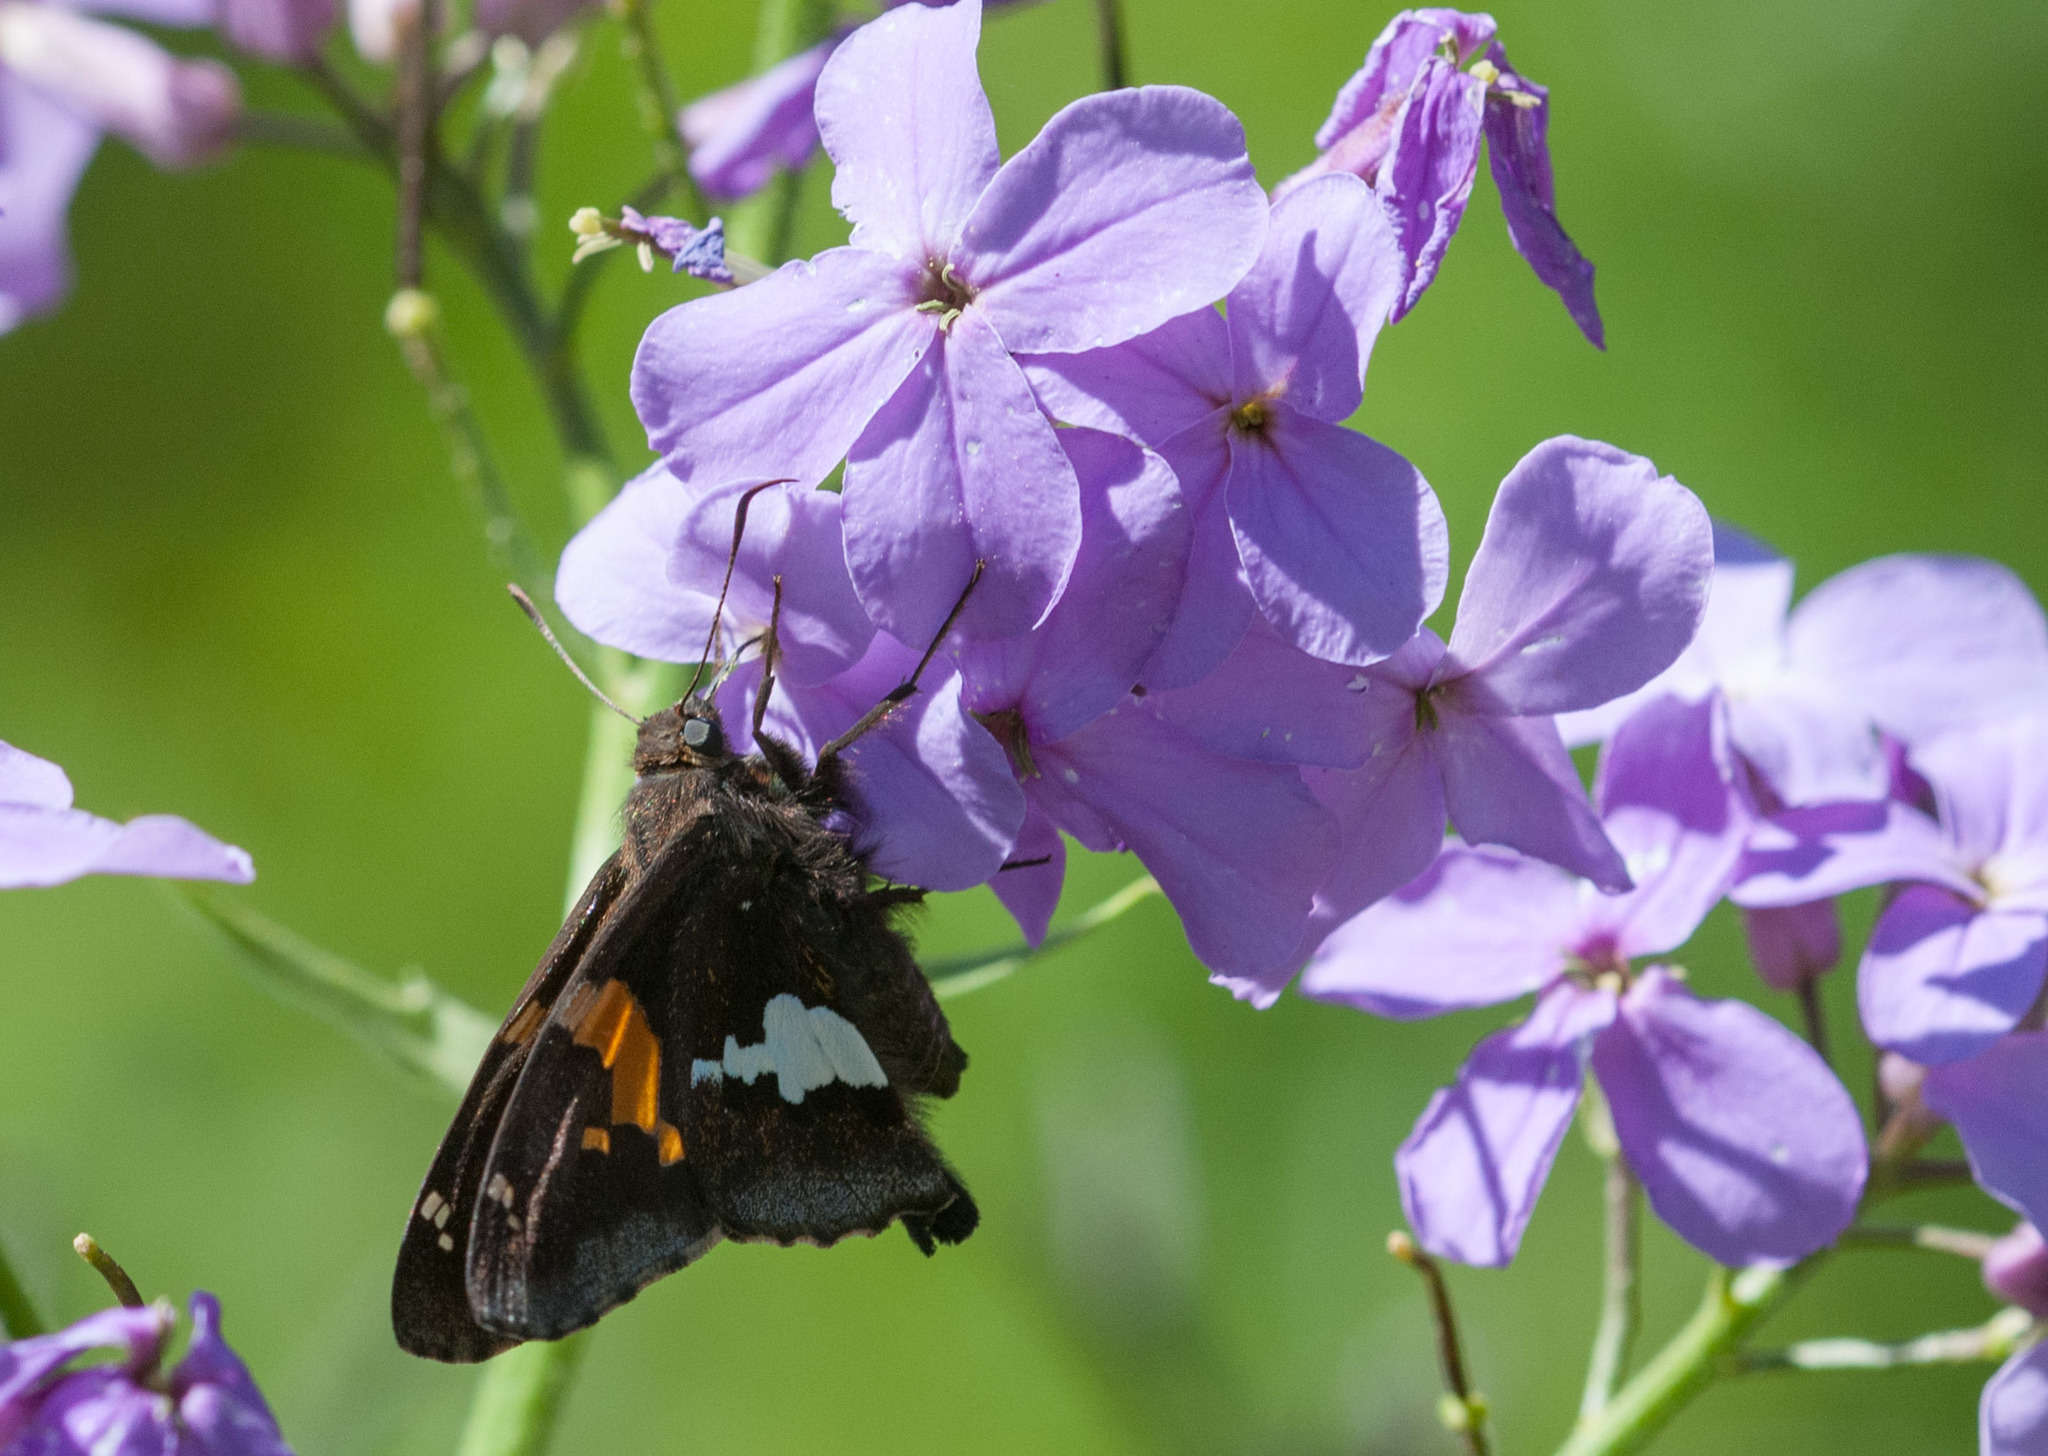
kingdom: Animalia
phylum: Arthropoda
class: Insecta
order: Lepidoptera
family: Hesperiidae
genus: Epargyreus
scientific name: Epargyreus clarus
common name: Silver-spotted skipper
